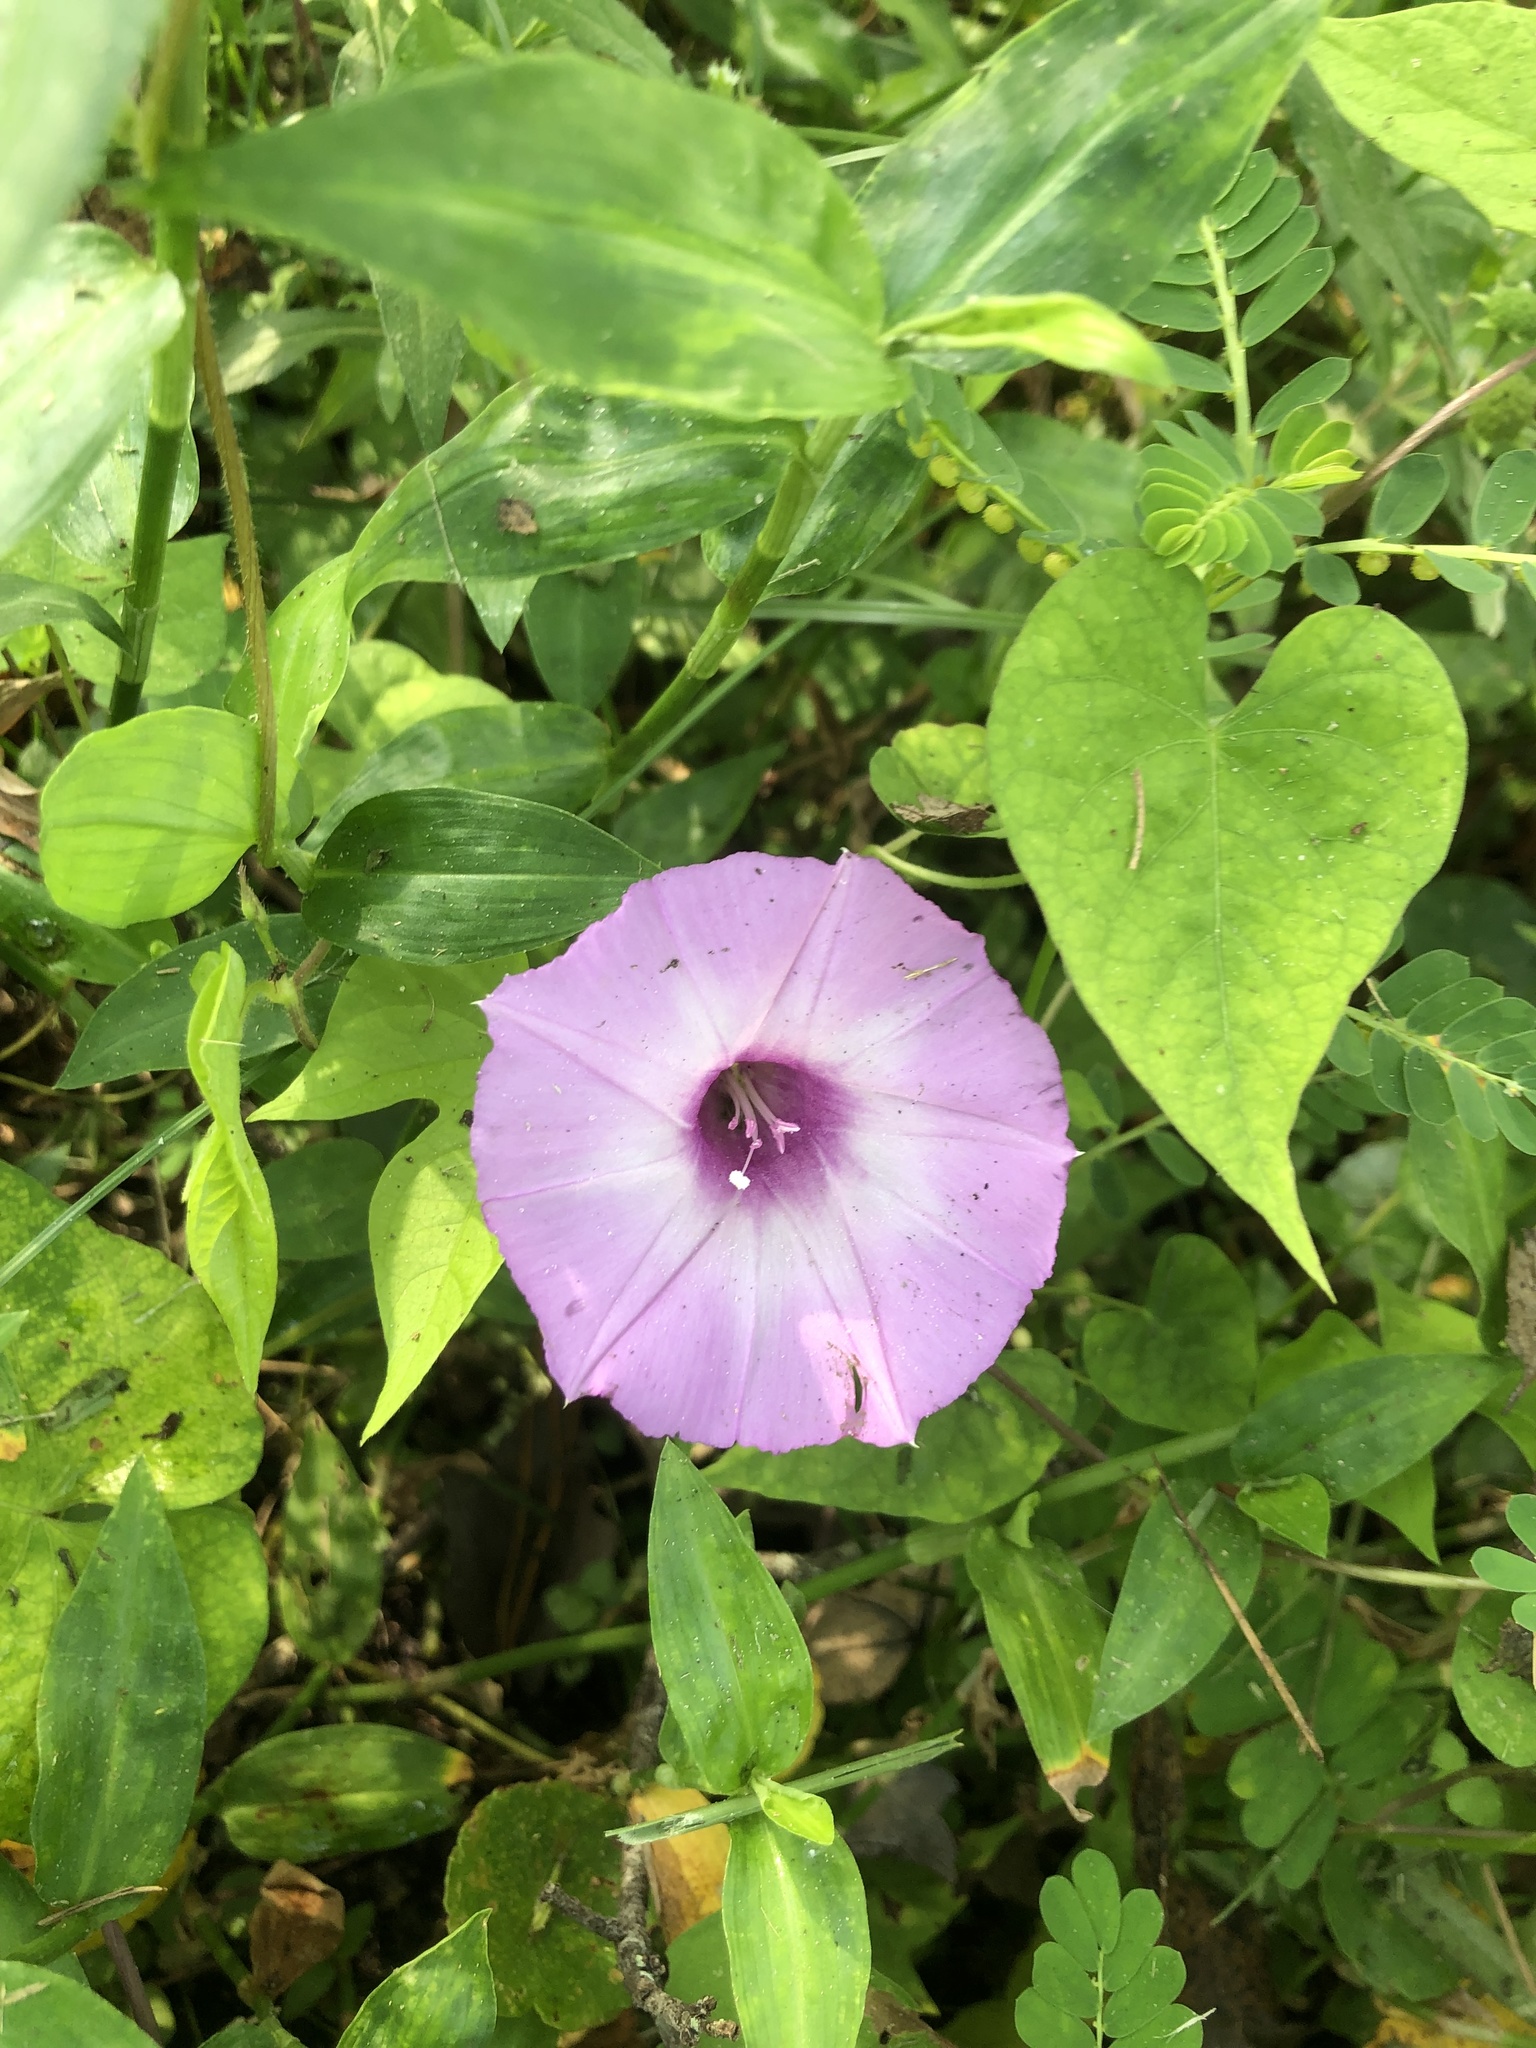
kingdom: Plantae
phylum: Tracheophyta
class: Magnoliopsida
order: Solanales
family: Convolvulaceae
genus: Ipomoea
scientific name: Ipomoea cordatotriloba
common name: Cotton morning glory
